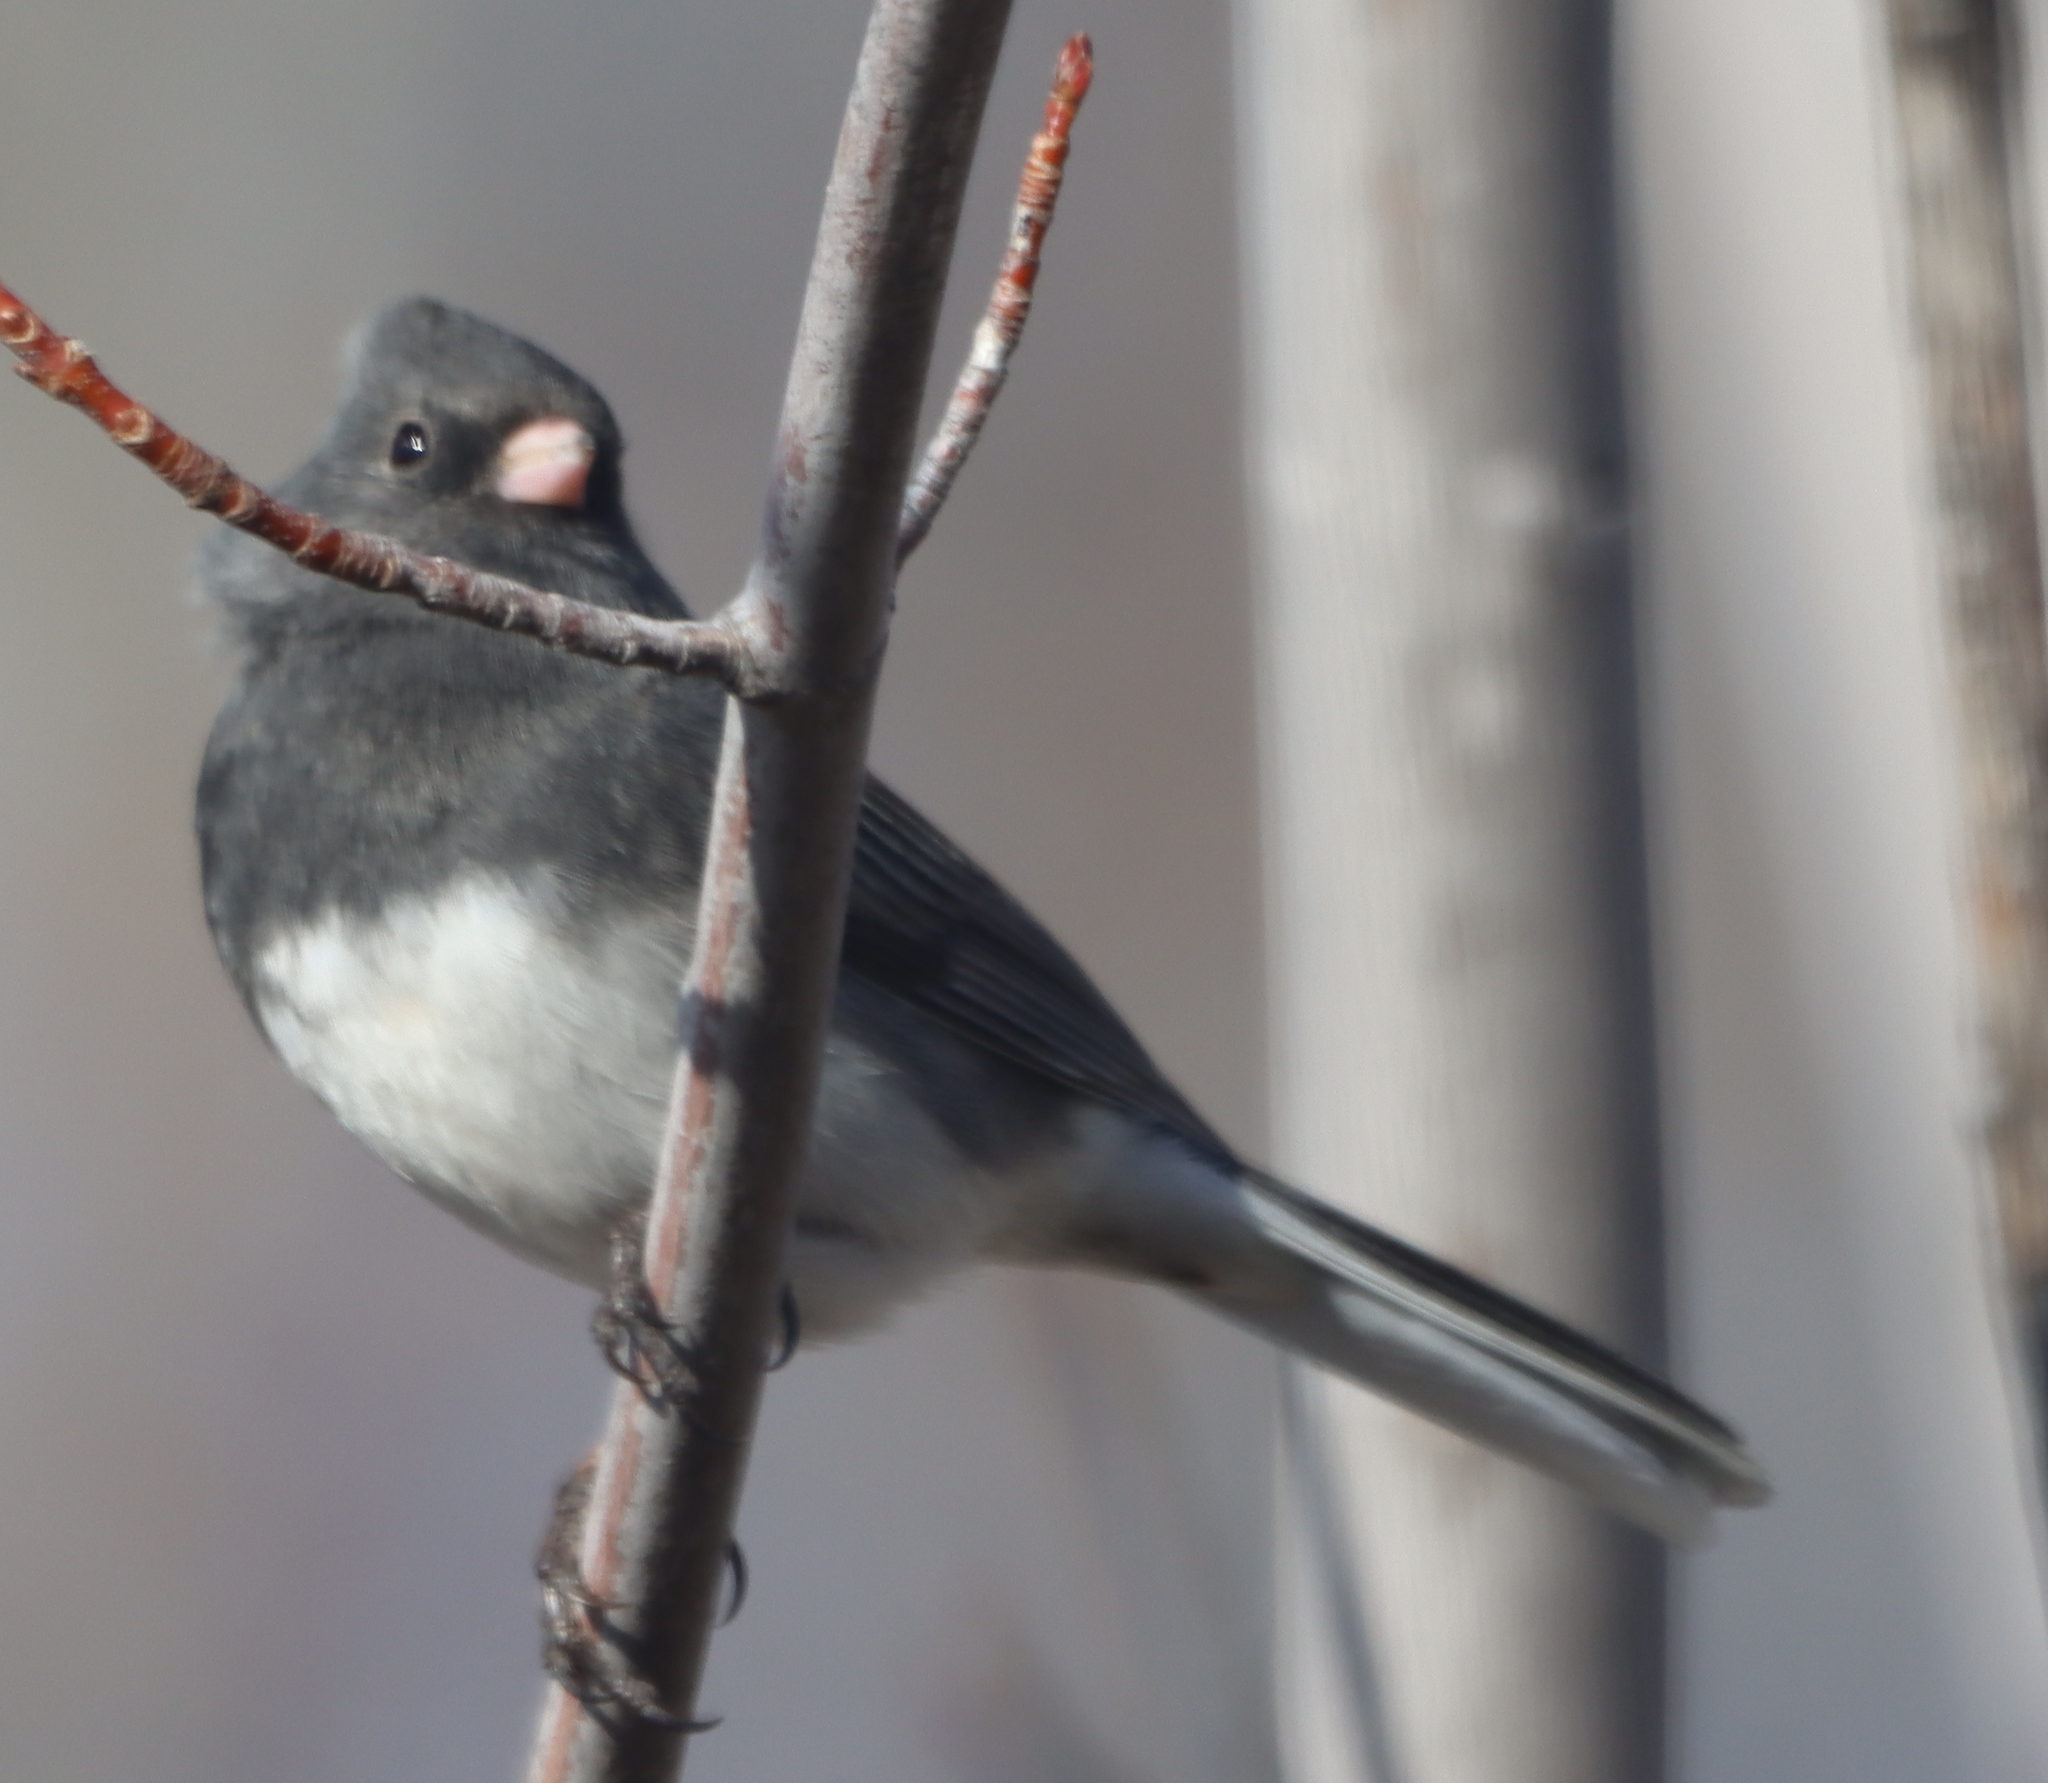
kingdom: Animalia
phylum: Chordata
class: Aves
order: Passeriformes
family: Passerellidae
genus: Junco
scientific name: Junco hyemalis
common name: Dark-eyed junco
